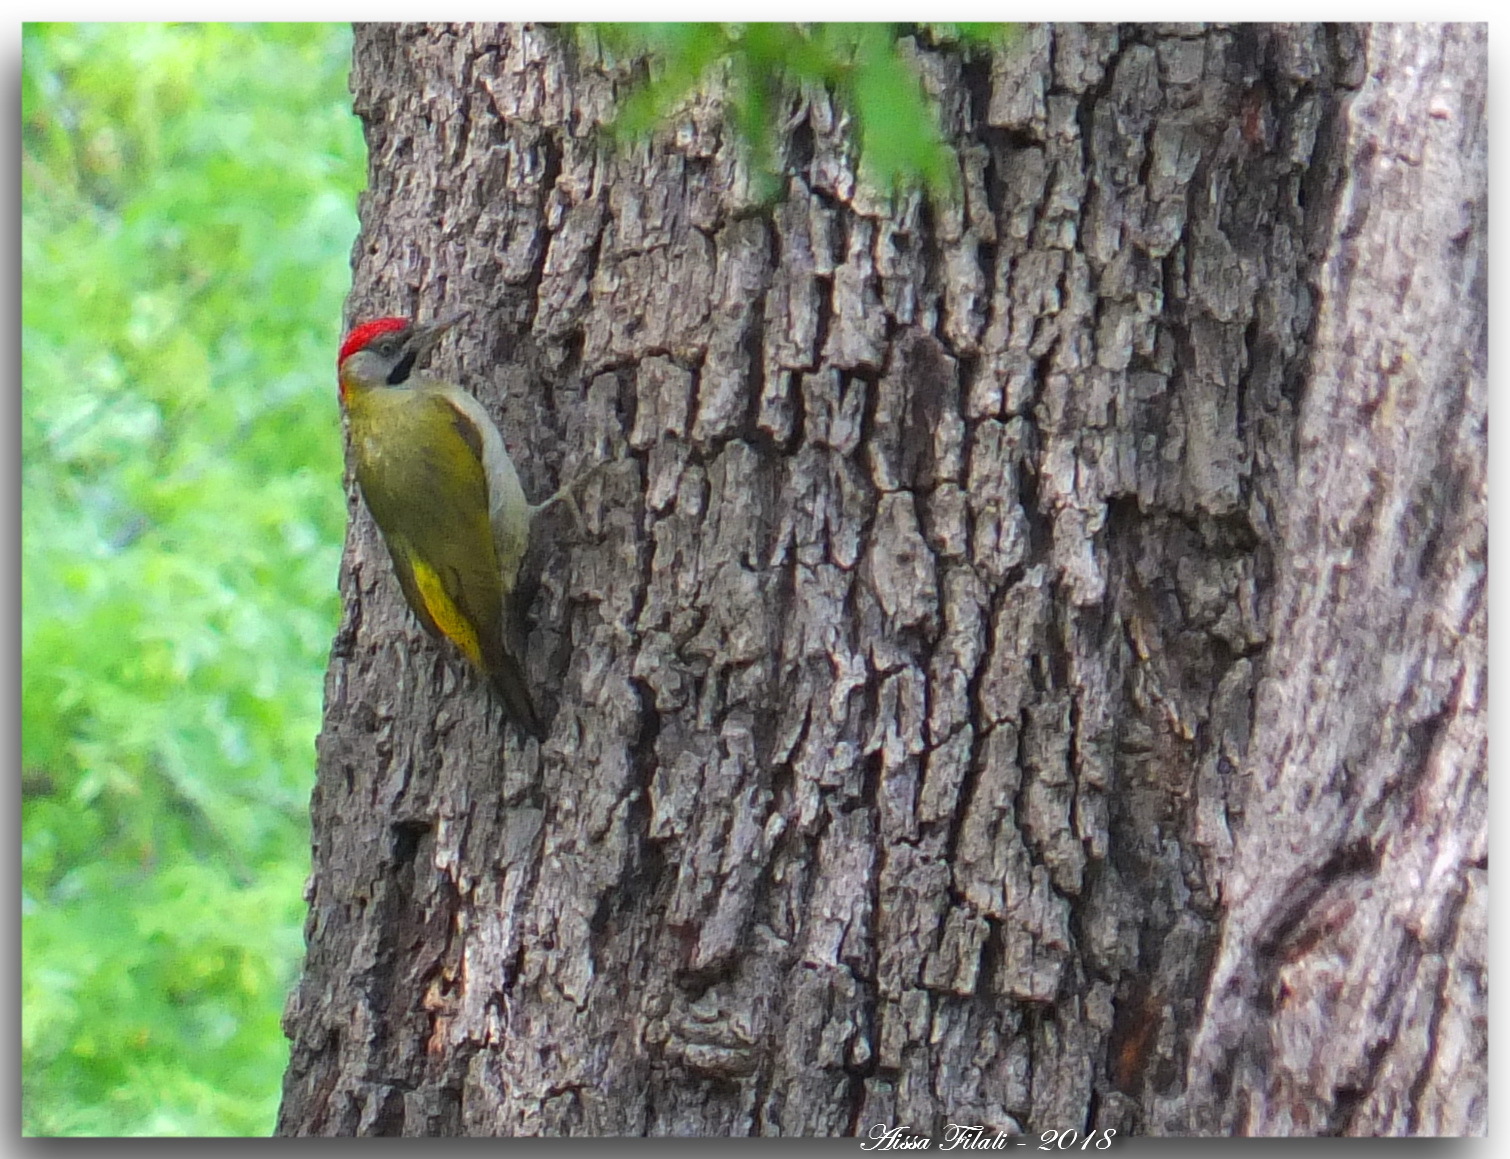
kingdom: Animalia
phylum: Chordata
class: Aves
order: Piciformes
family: Picidae
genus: Picus
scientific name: Picus vaillantii
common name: Levaillant's woodpecker
